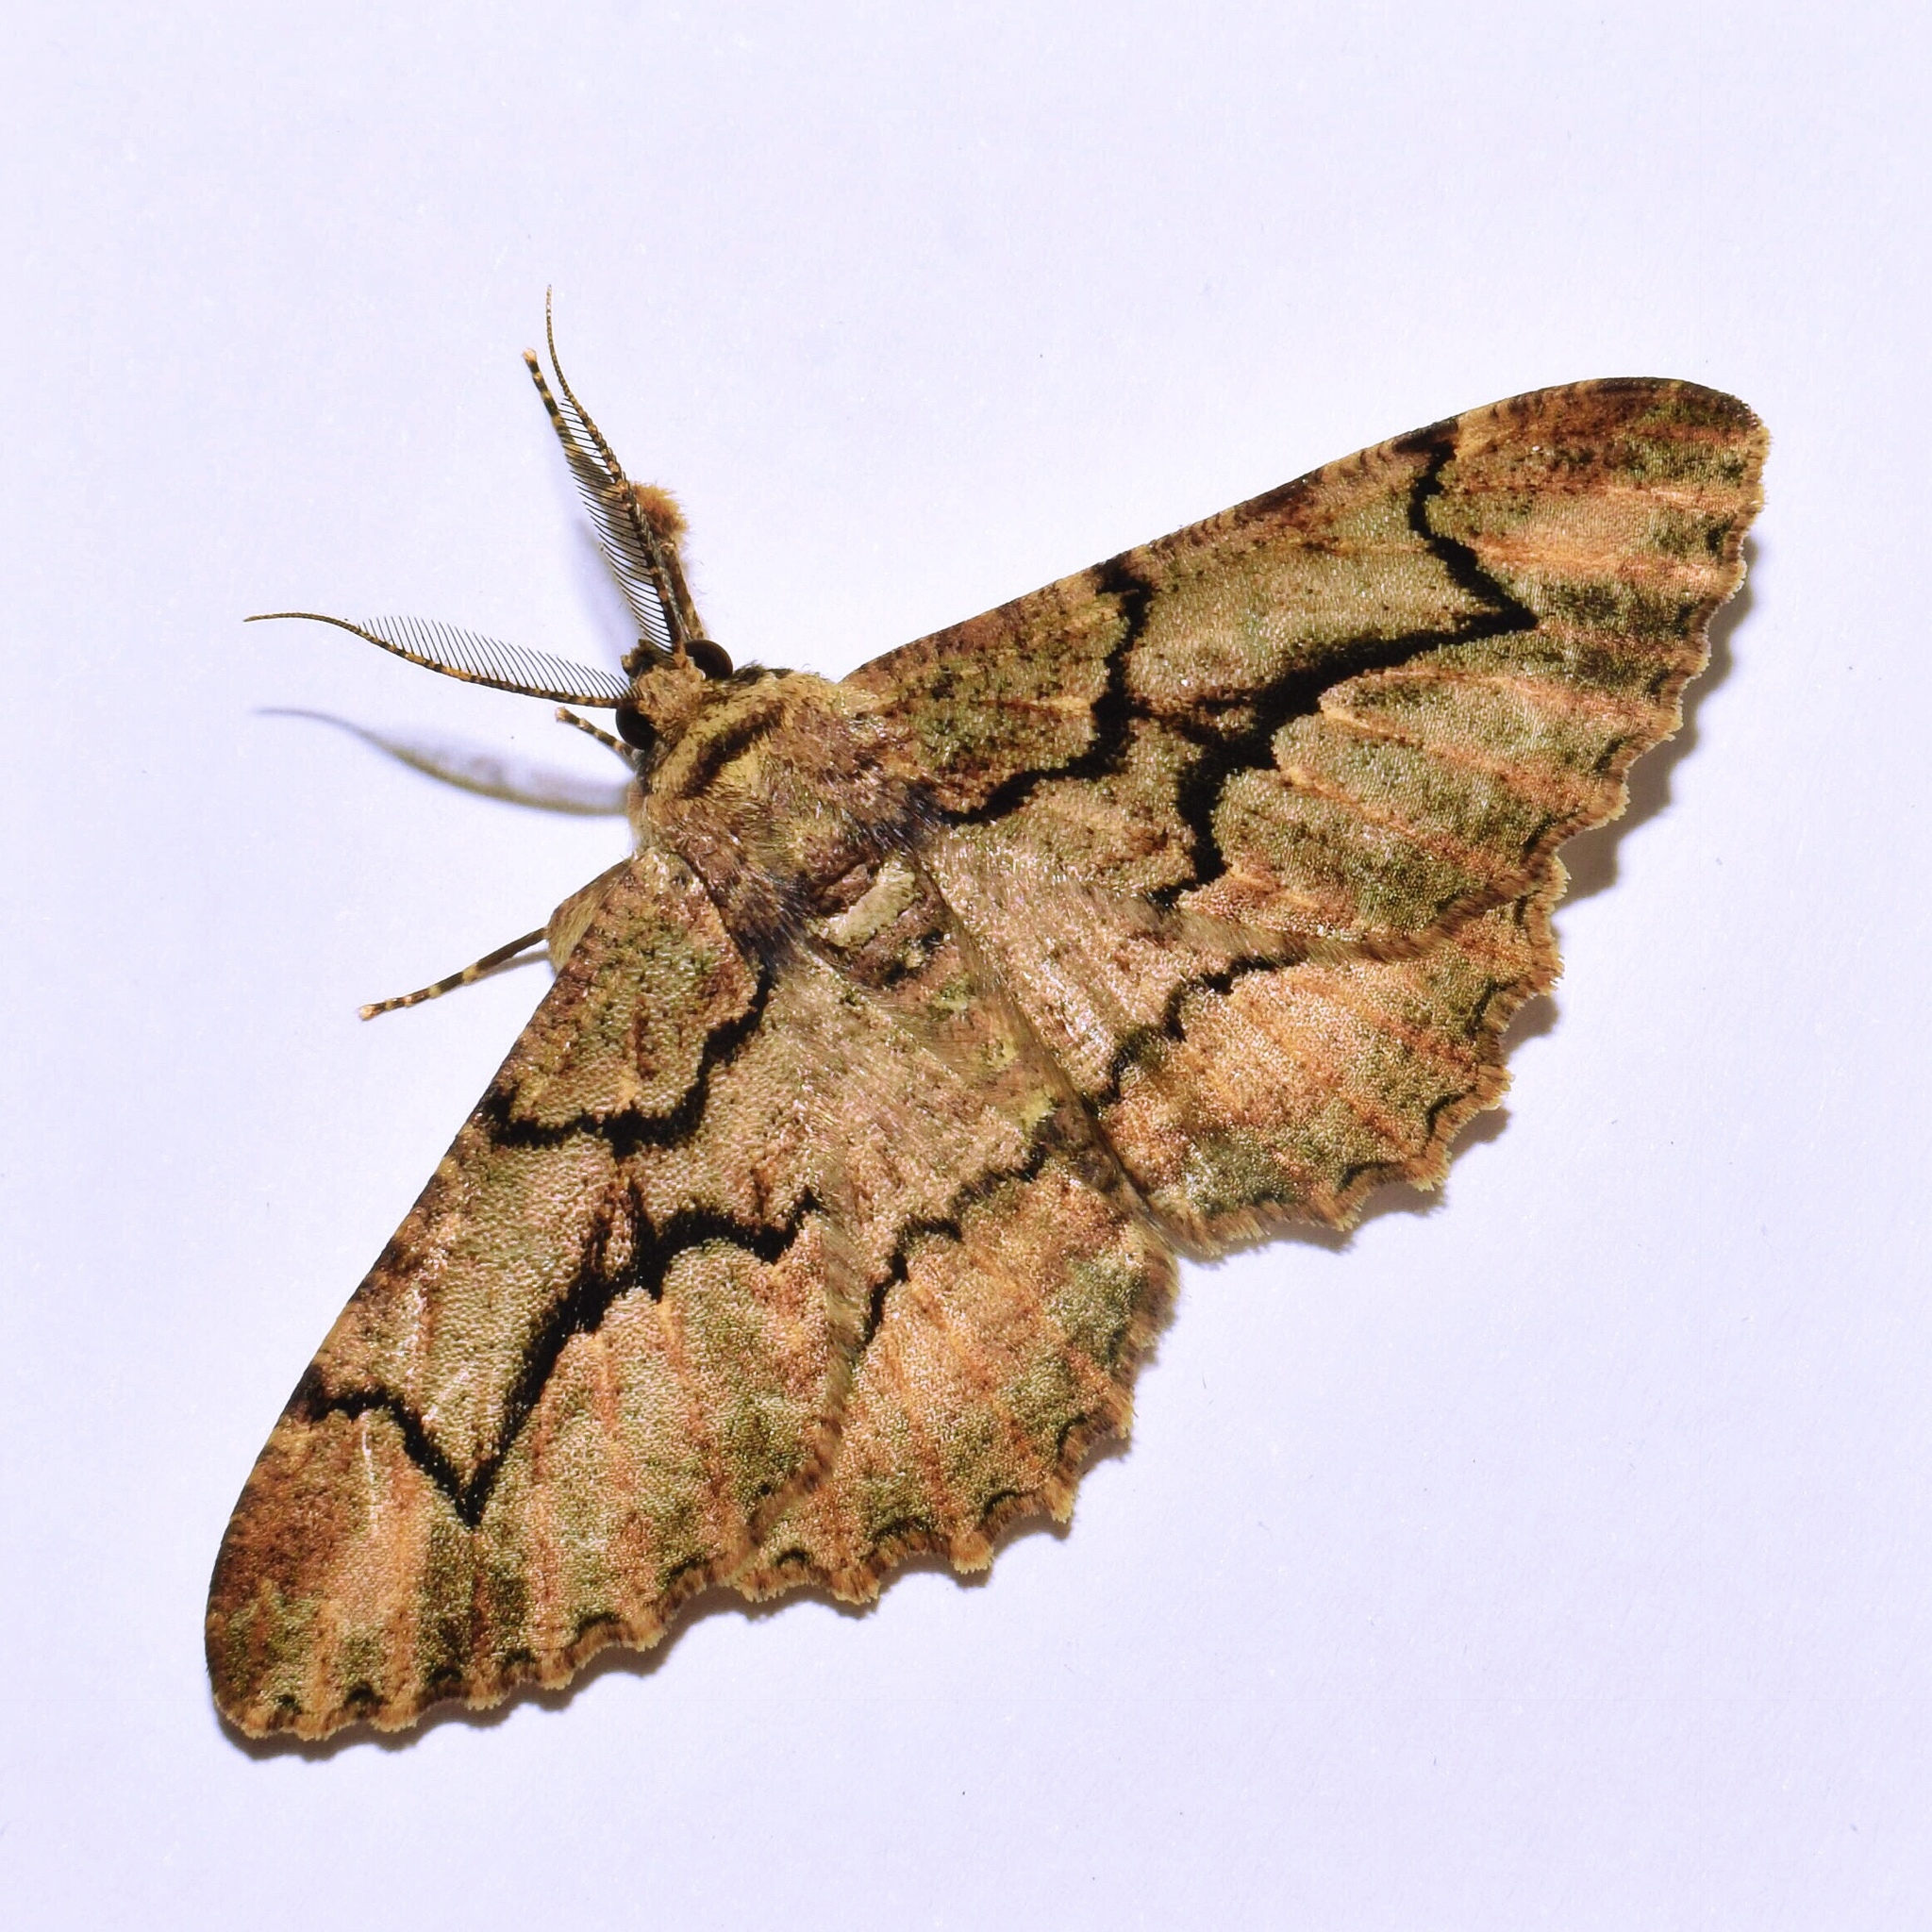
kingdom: Animalia
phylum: Arthropoda
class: Insecta
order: Lepidoptera
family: Geometridae
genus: Colocleora
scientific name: Colocleora divisaria
